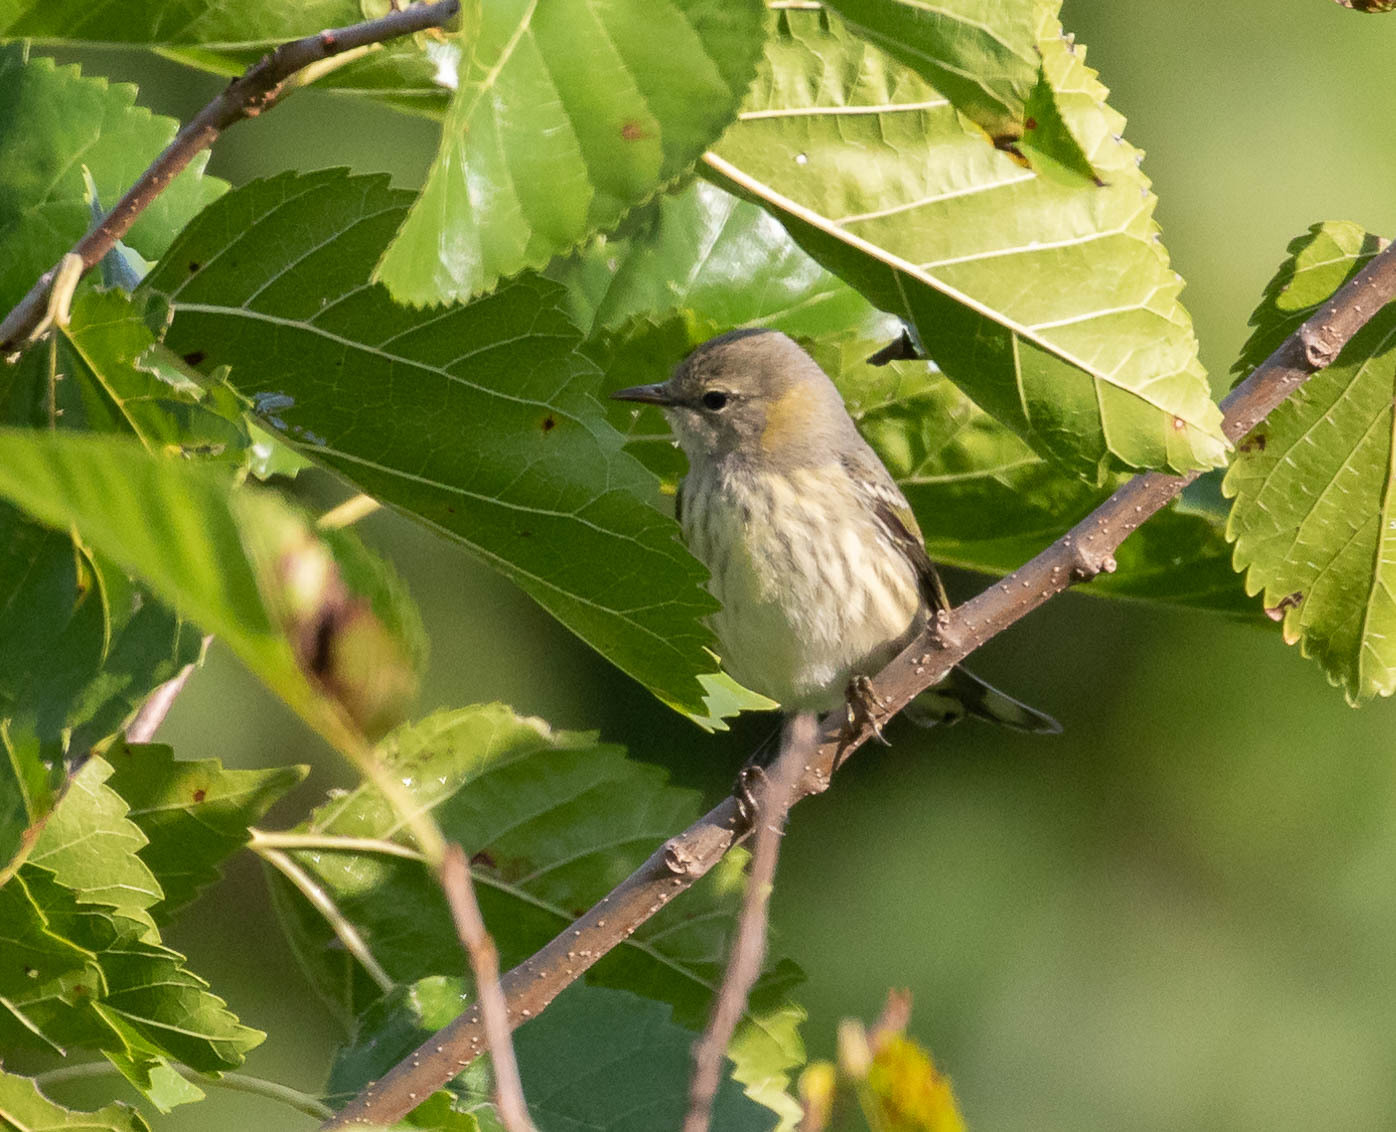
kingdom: Animalia
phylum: Chordata
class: Aves
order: Passeriformes
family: Parulidae
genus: Setophaga
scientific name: Setophaga tigrina
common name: Cape may warbler
